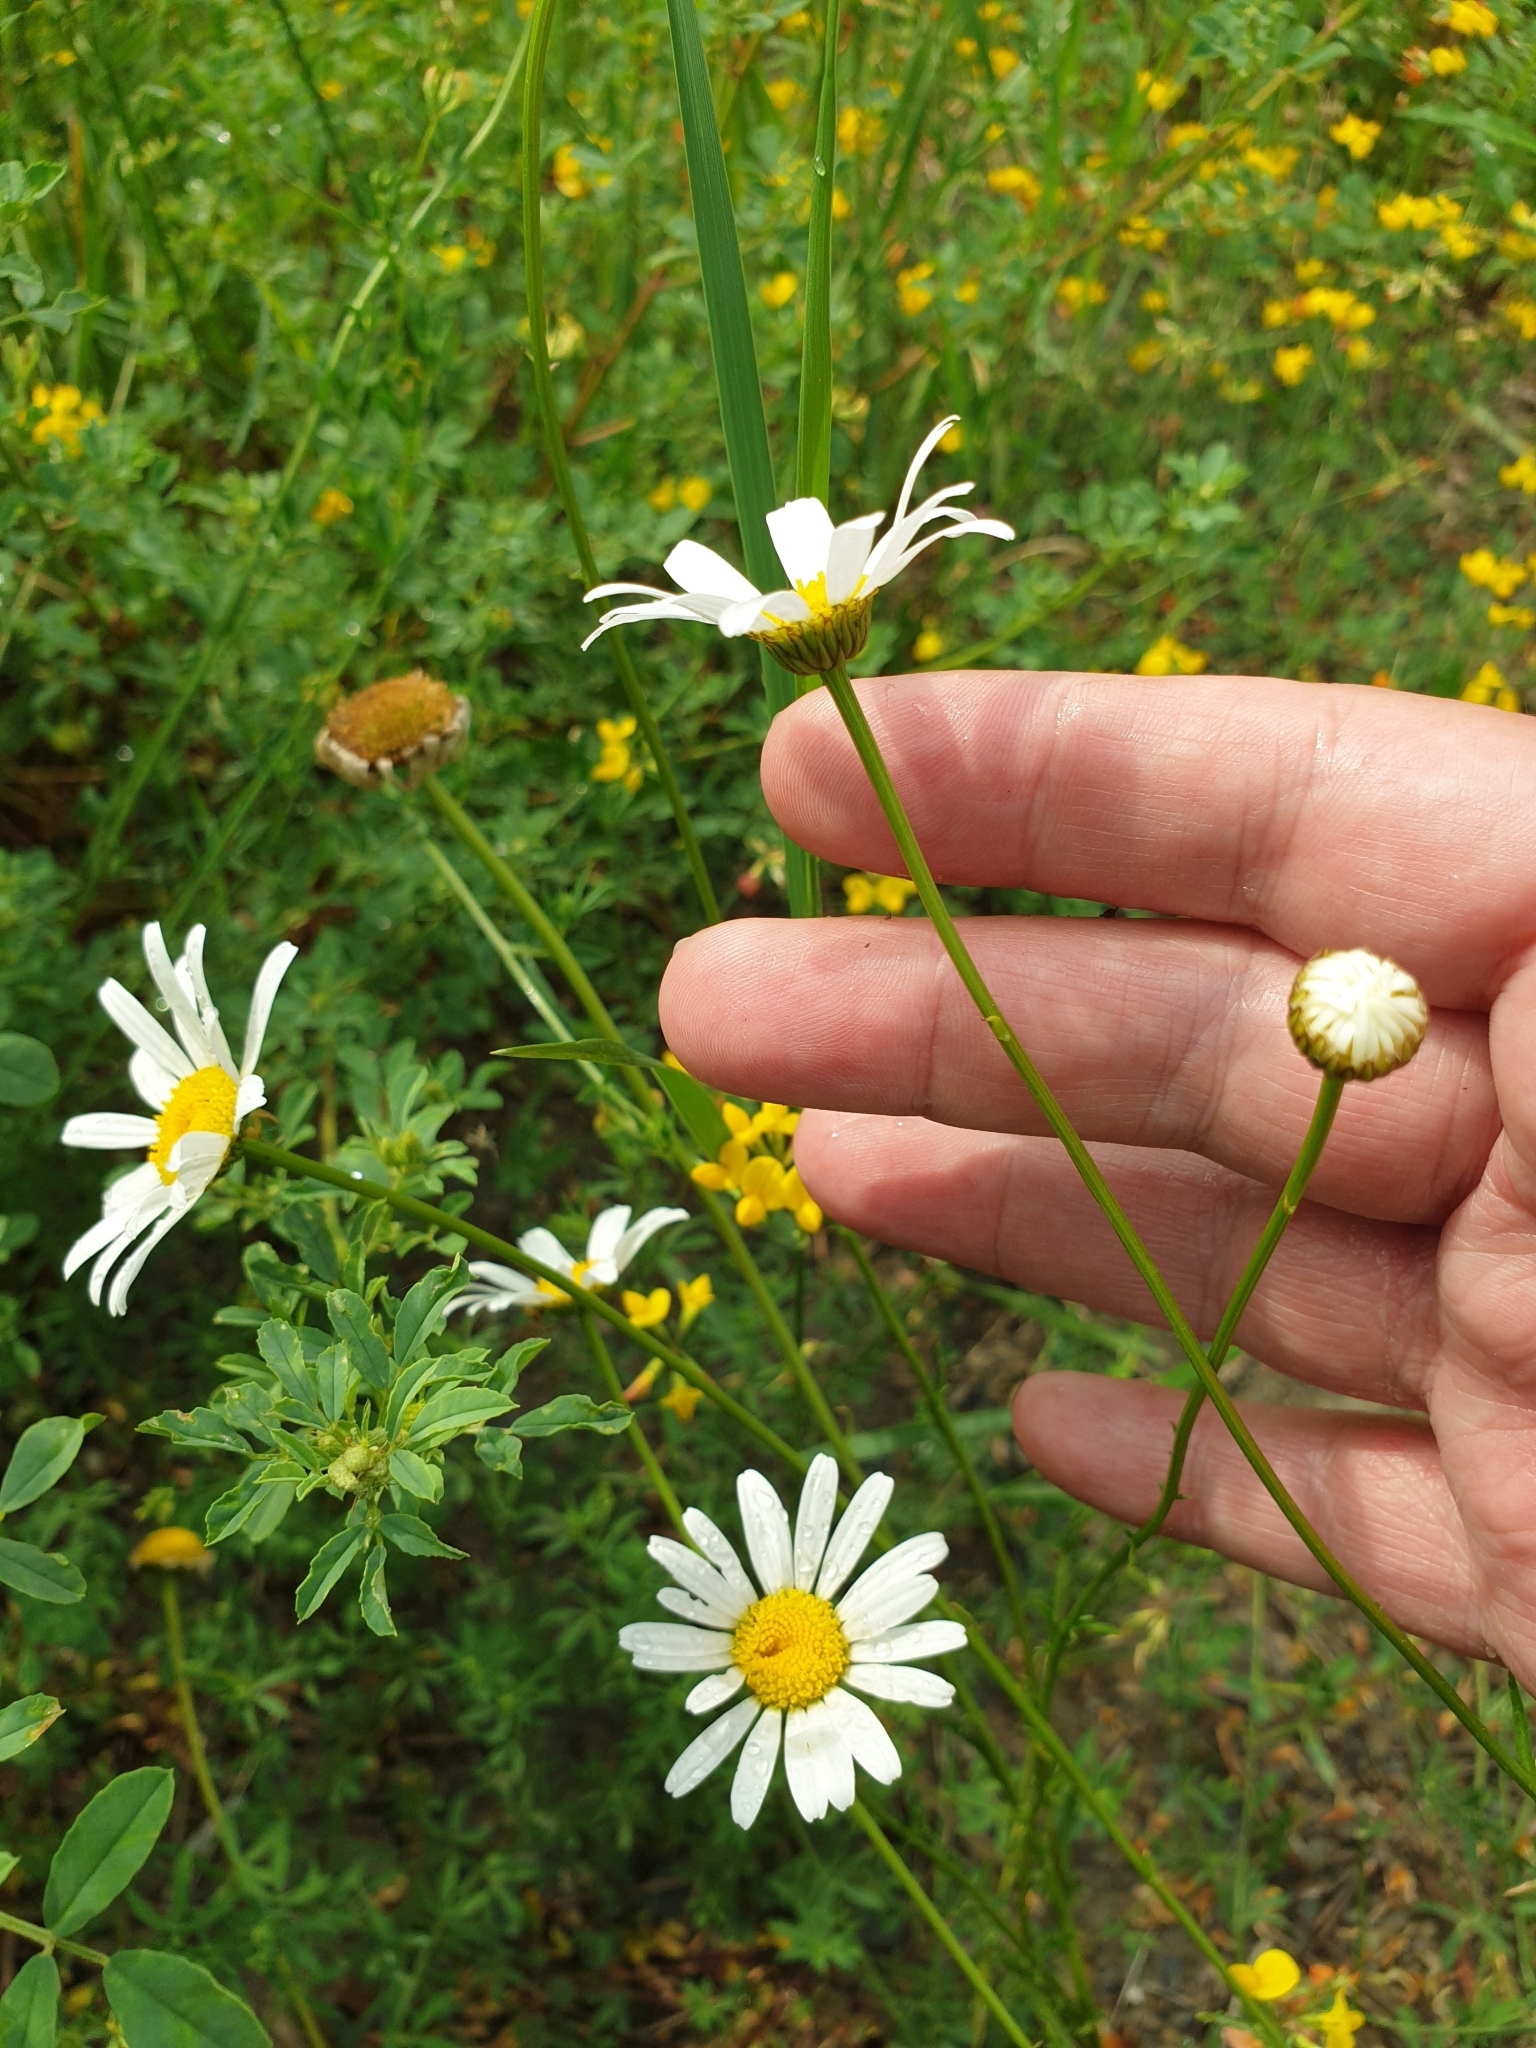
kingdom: Plantae
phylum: Tracheophyta
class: Magnoliopsida
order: Asterales
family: Asteraceae
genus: Leucanthemum
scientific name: Leucanthemum vulgare
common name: Oxeye daisy
